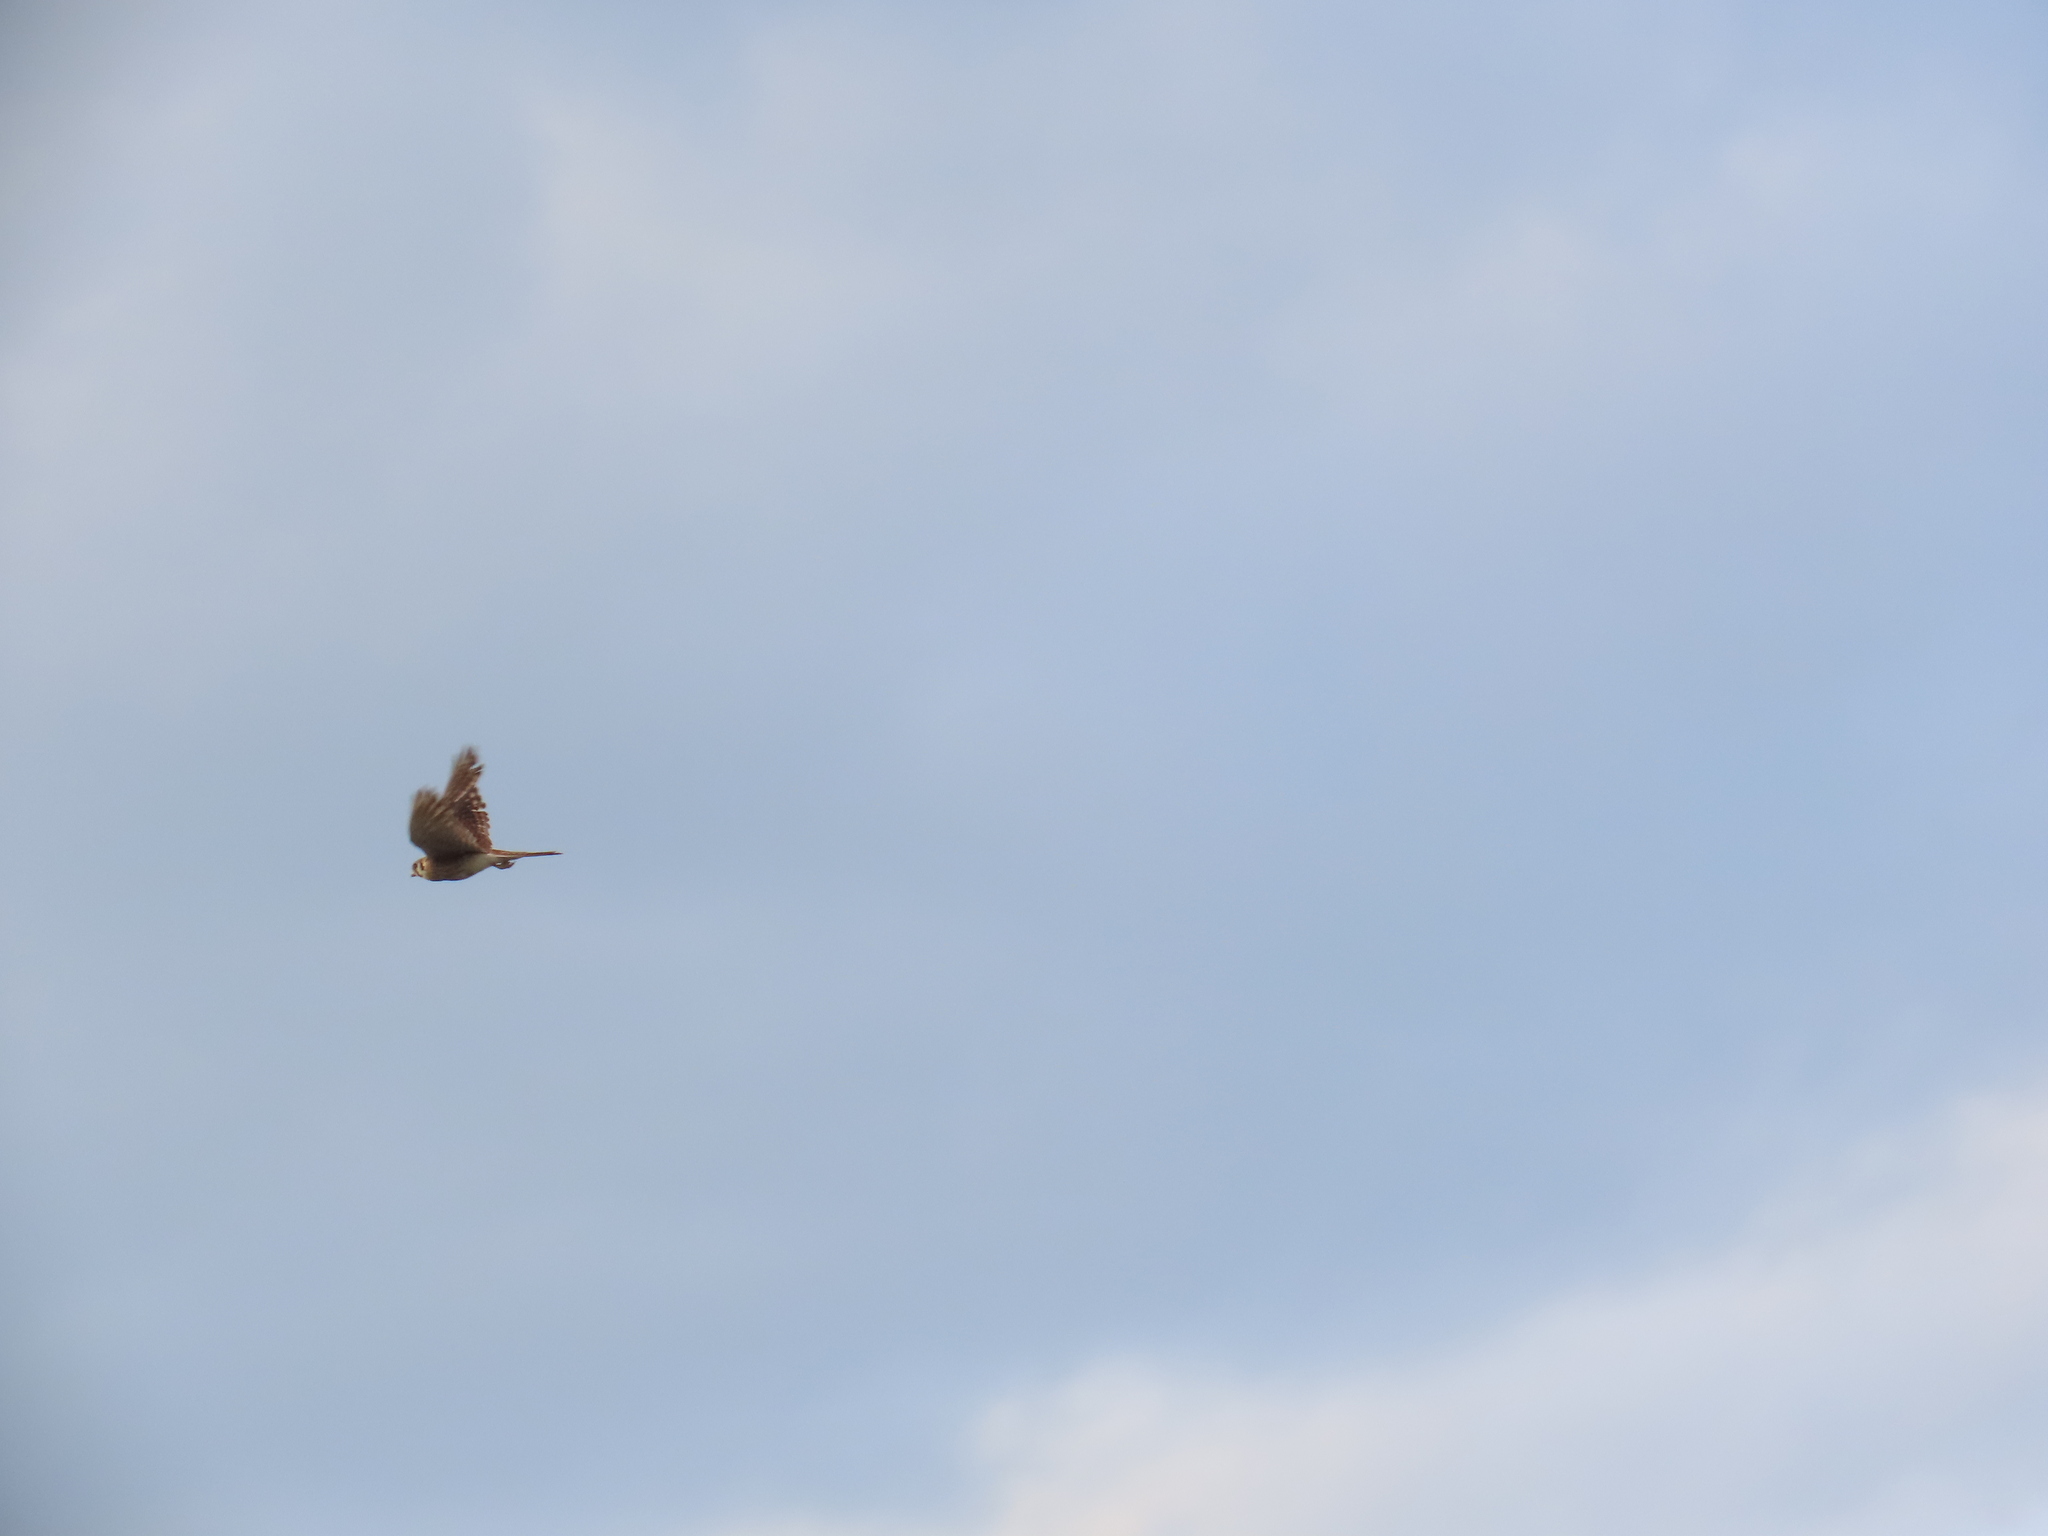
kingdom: Animalia
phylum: Chordata
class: Aves
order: Falconiformes
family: Falconidae
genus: Falco
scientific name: Falco sparverius
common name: American kestrel
